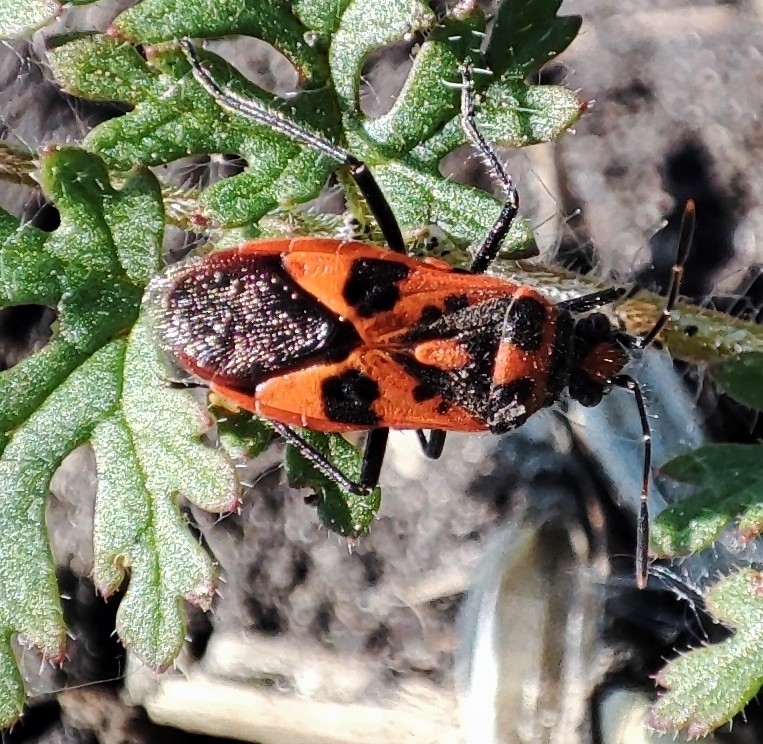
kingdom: Animalia
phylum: Arthropoda
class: Insecta
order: Hemiptera
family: Rhopalidae
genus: Corizus
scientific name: Corizus hyoscyami
